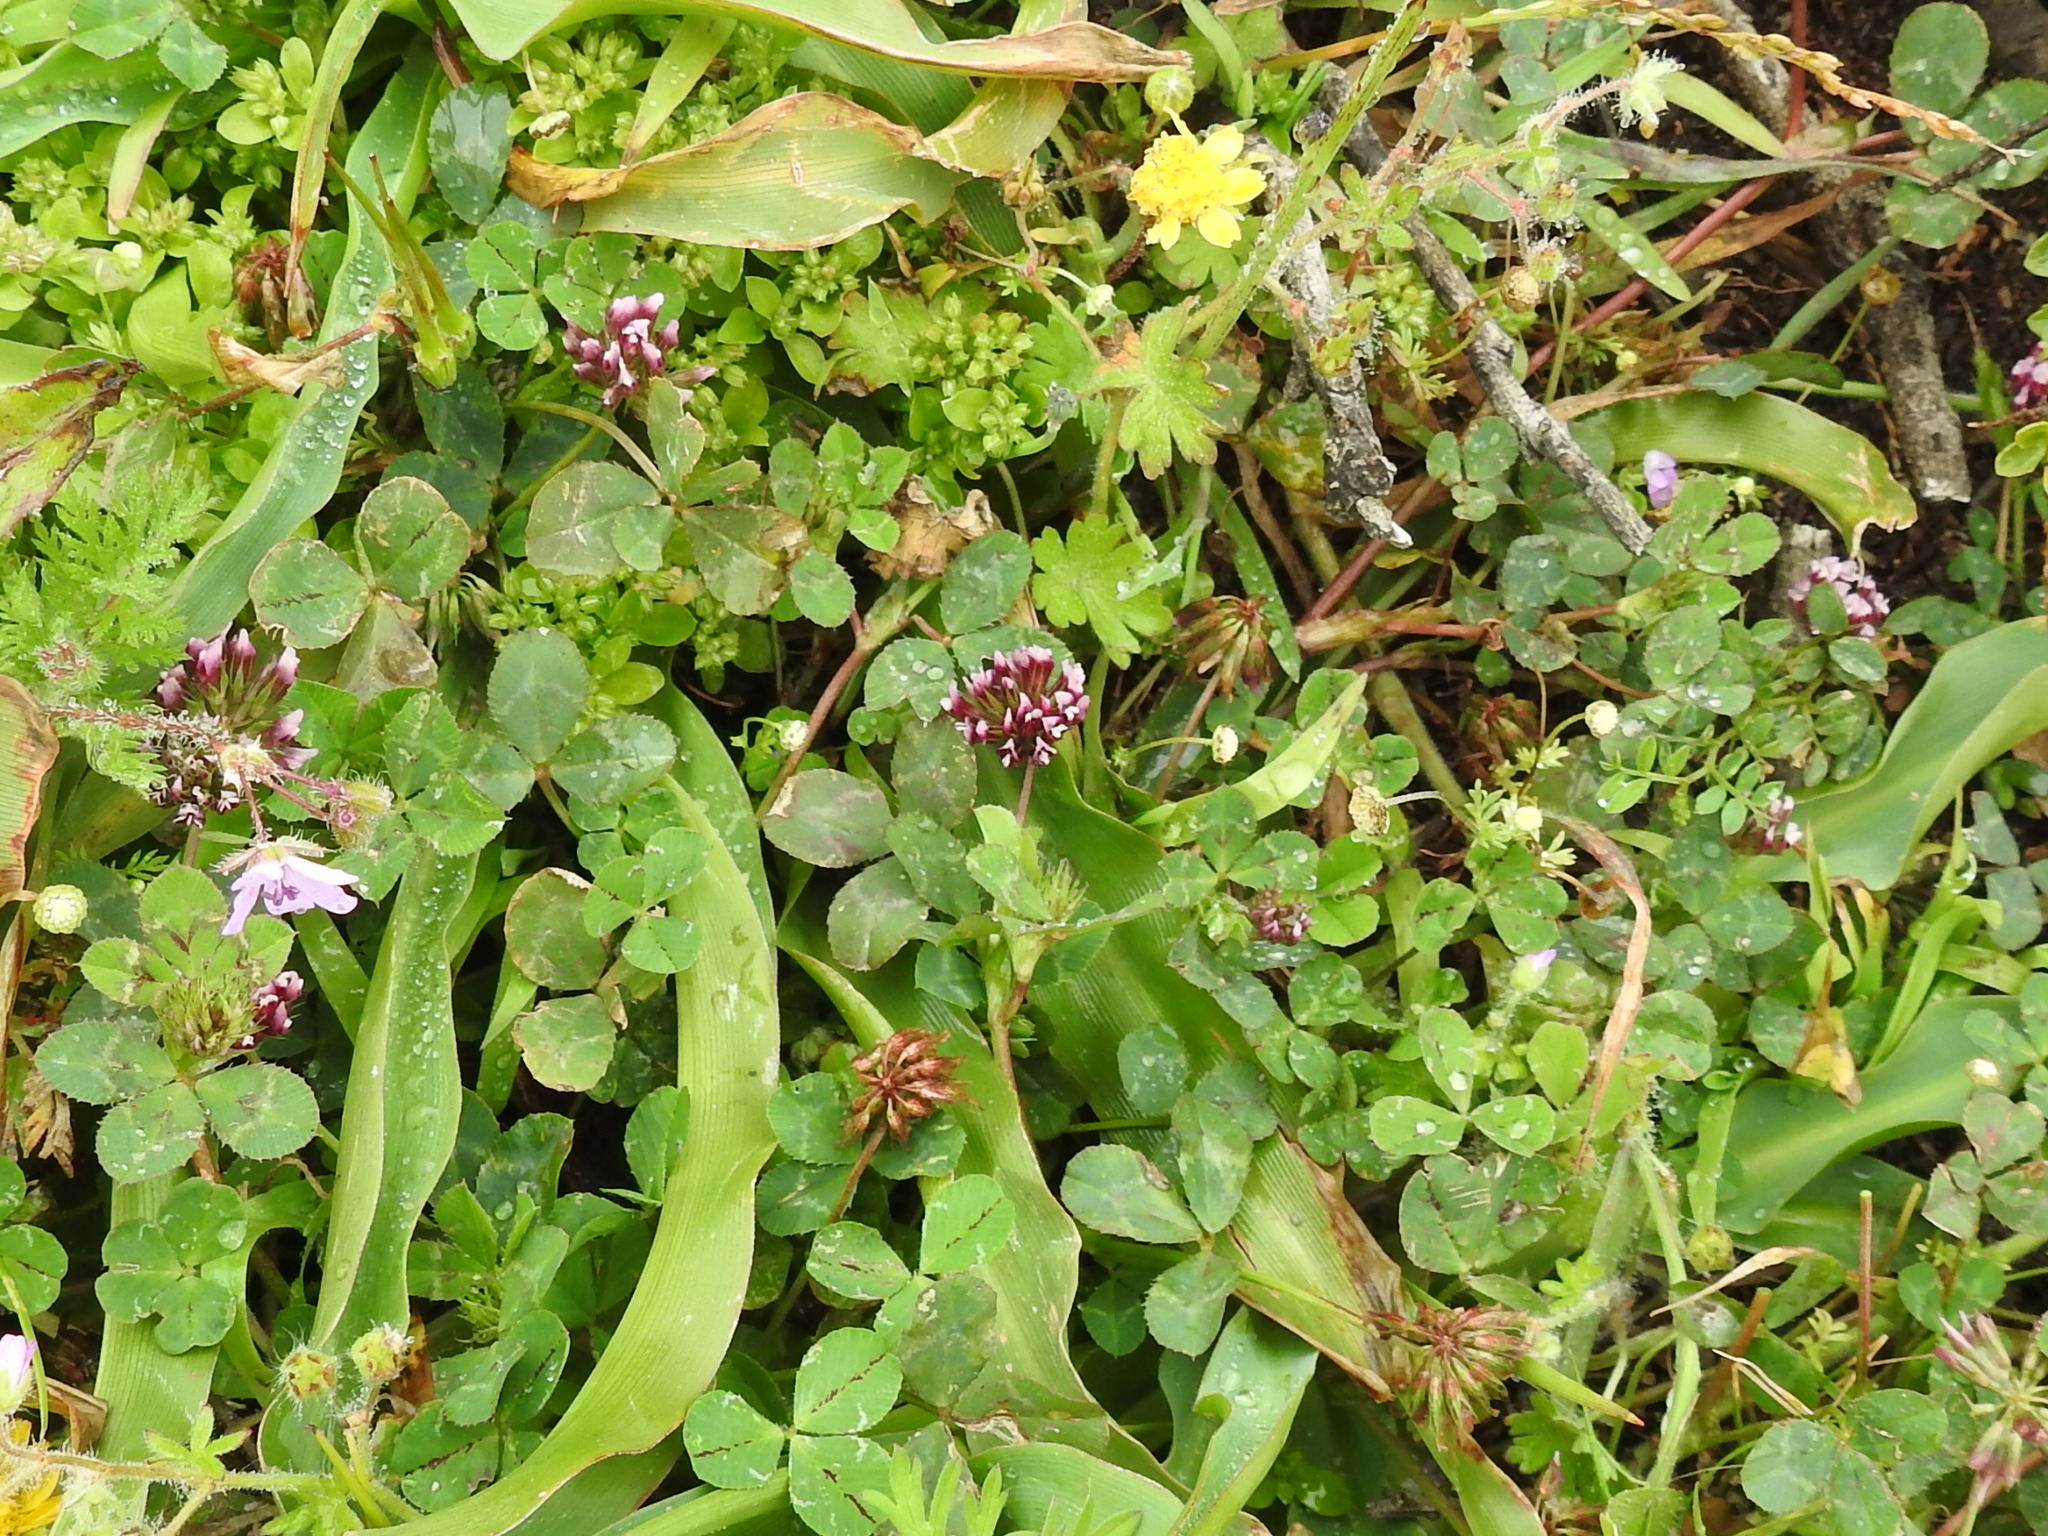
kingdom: Plantae
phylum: Tracheophyta
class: Magnoliopsida
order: Fabales
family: Fabaceae
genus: Trifolium
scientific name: Trifolium gracilentum
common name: Slender clover
